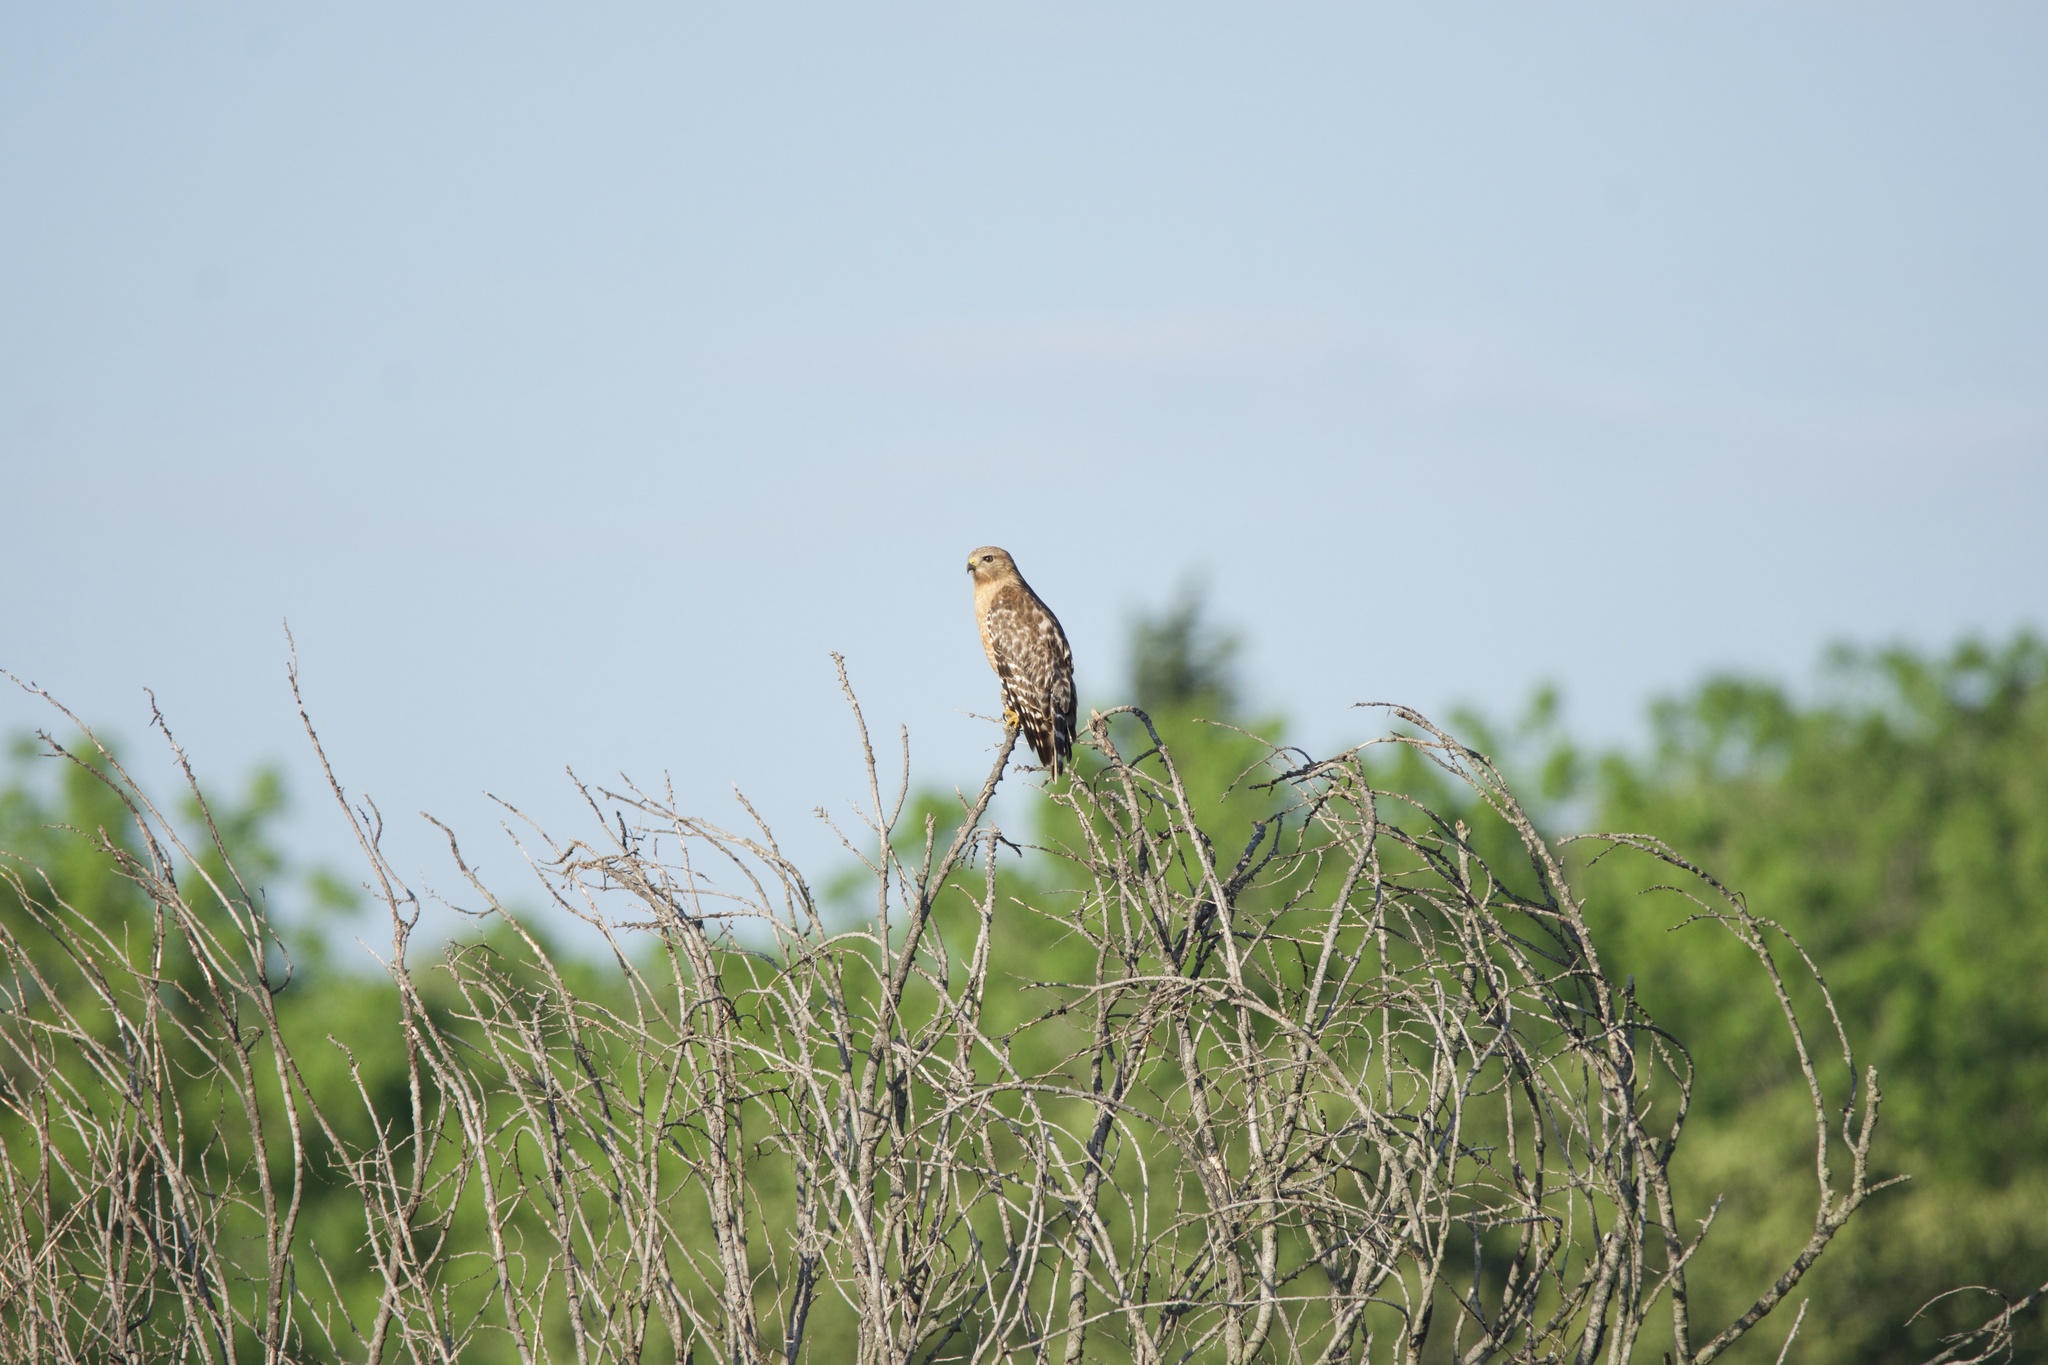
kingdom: Animalia
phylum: Chordata
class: Aves
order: Accipitriformes
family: Accipitridae
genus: Buteo
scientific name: Buteo lineatus
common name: Red-shouldered hawk
